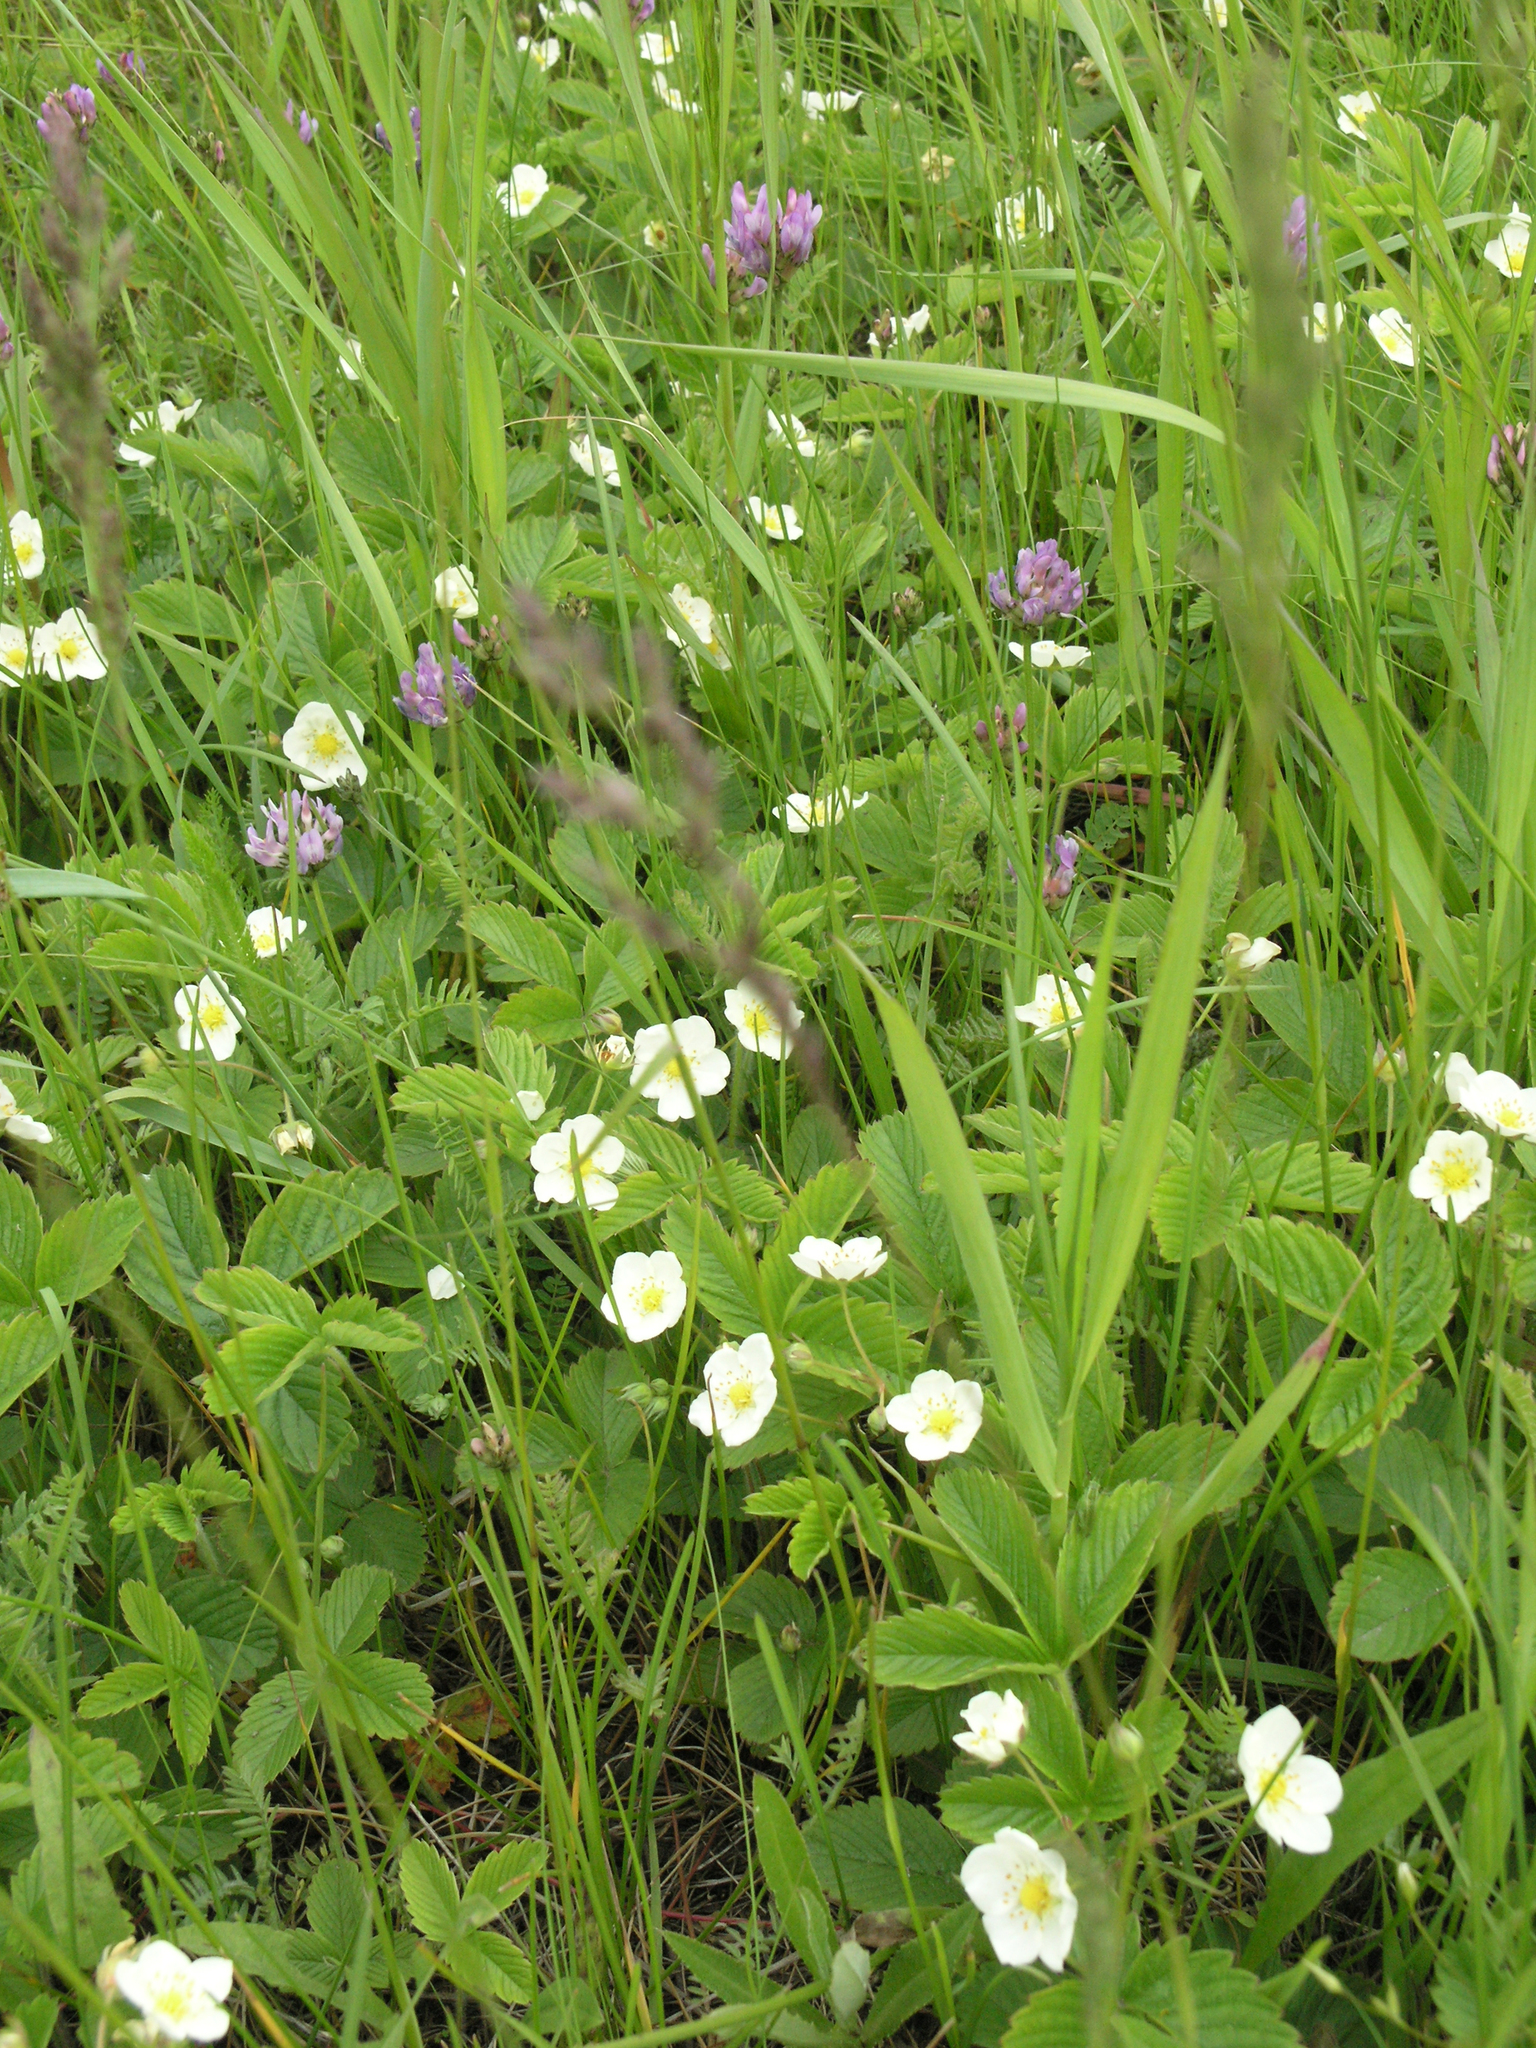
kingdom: Plantae
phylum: Tracheophyta
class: Magnoliopsida
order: Fabales
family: Fabaceae
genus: Astragalus
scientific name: Astragalus danicus
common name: Purple milk-vetch
